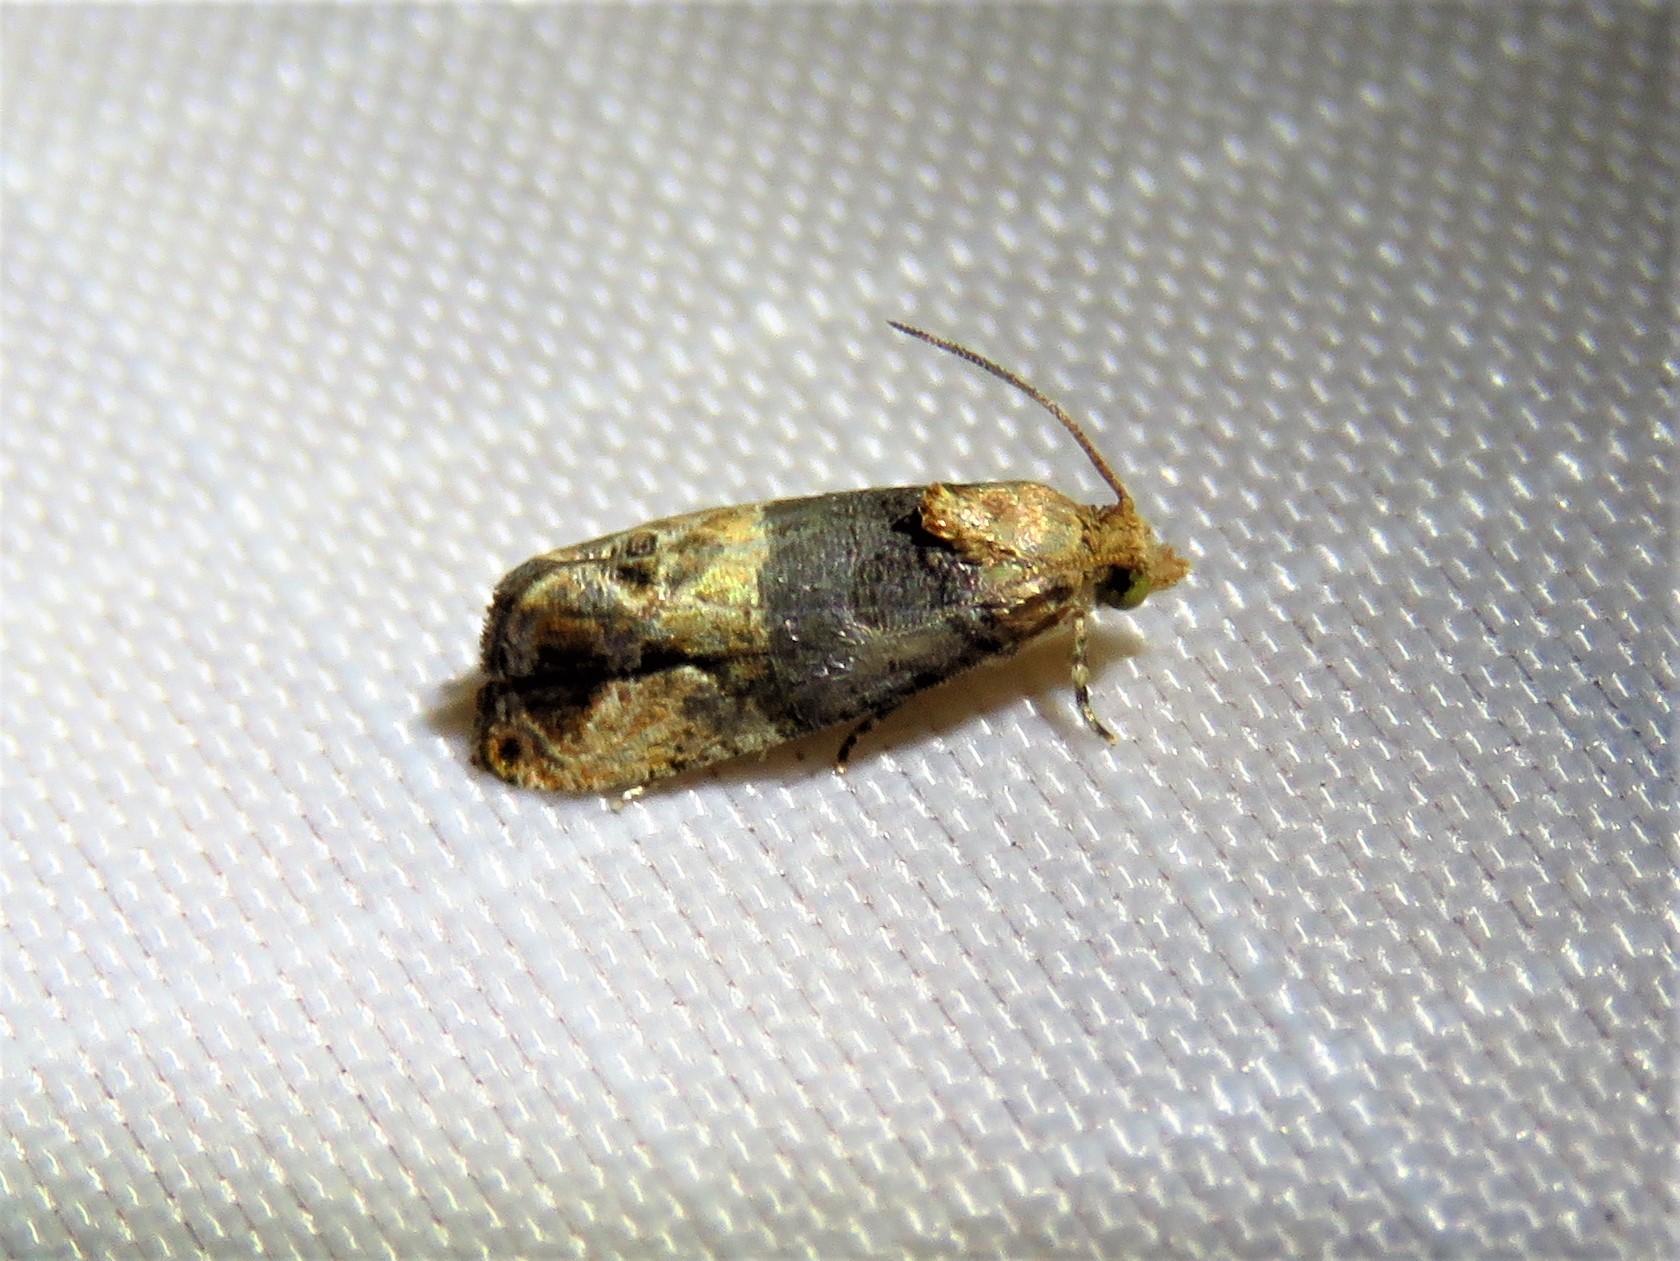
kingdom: Animalia
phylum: Arthropoda
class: Insecta
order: Lepidoptera
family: Tortricidae
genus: Paralobesia
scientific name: Paralobesia viteana
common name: Grape berry moth
